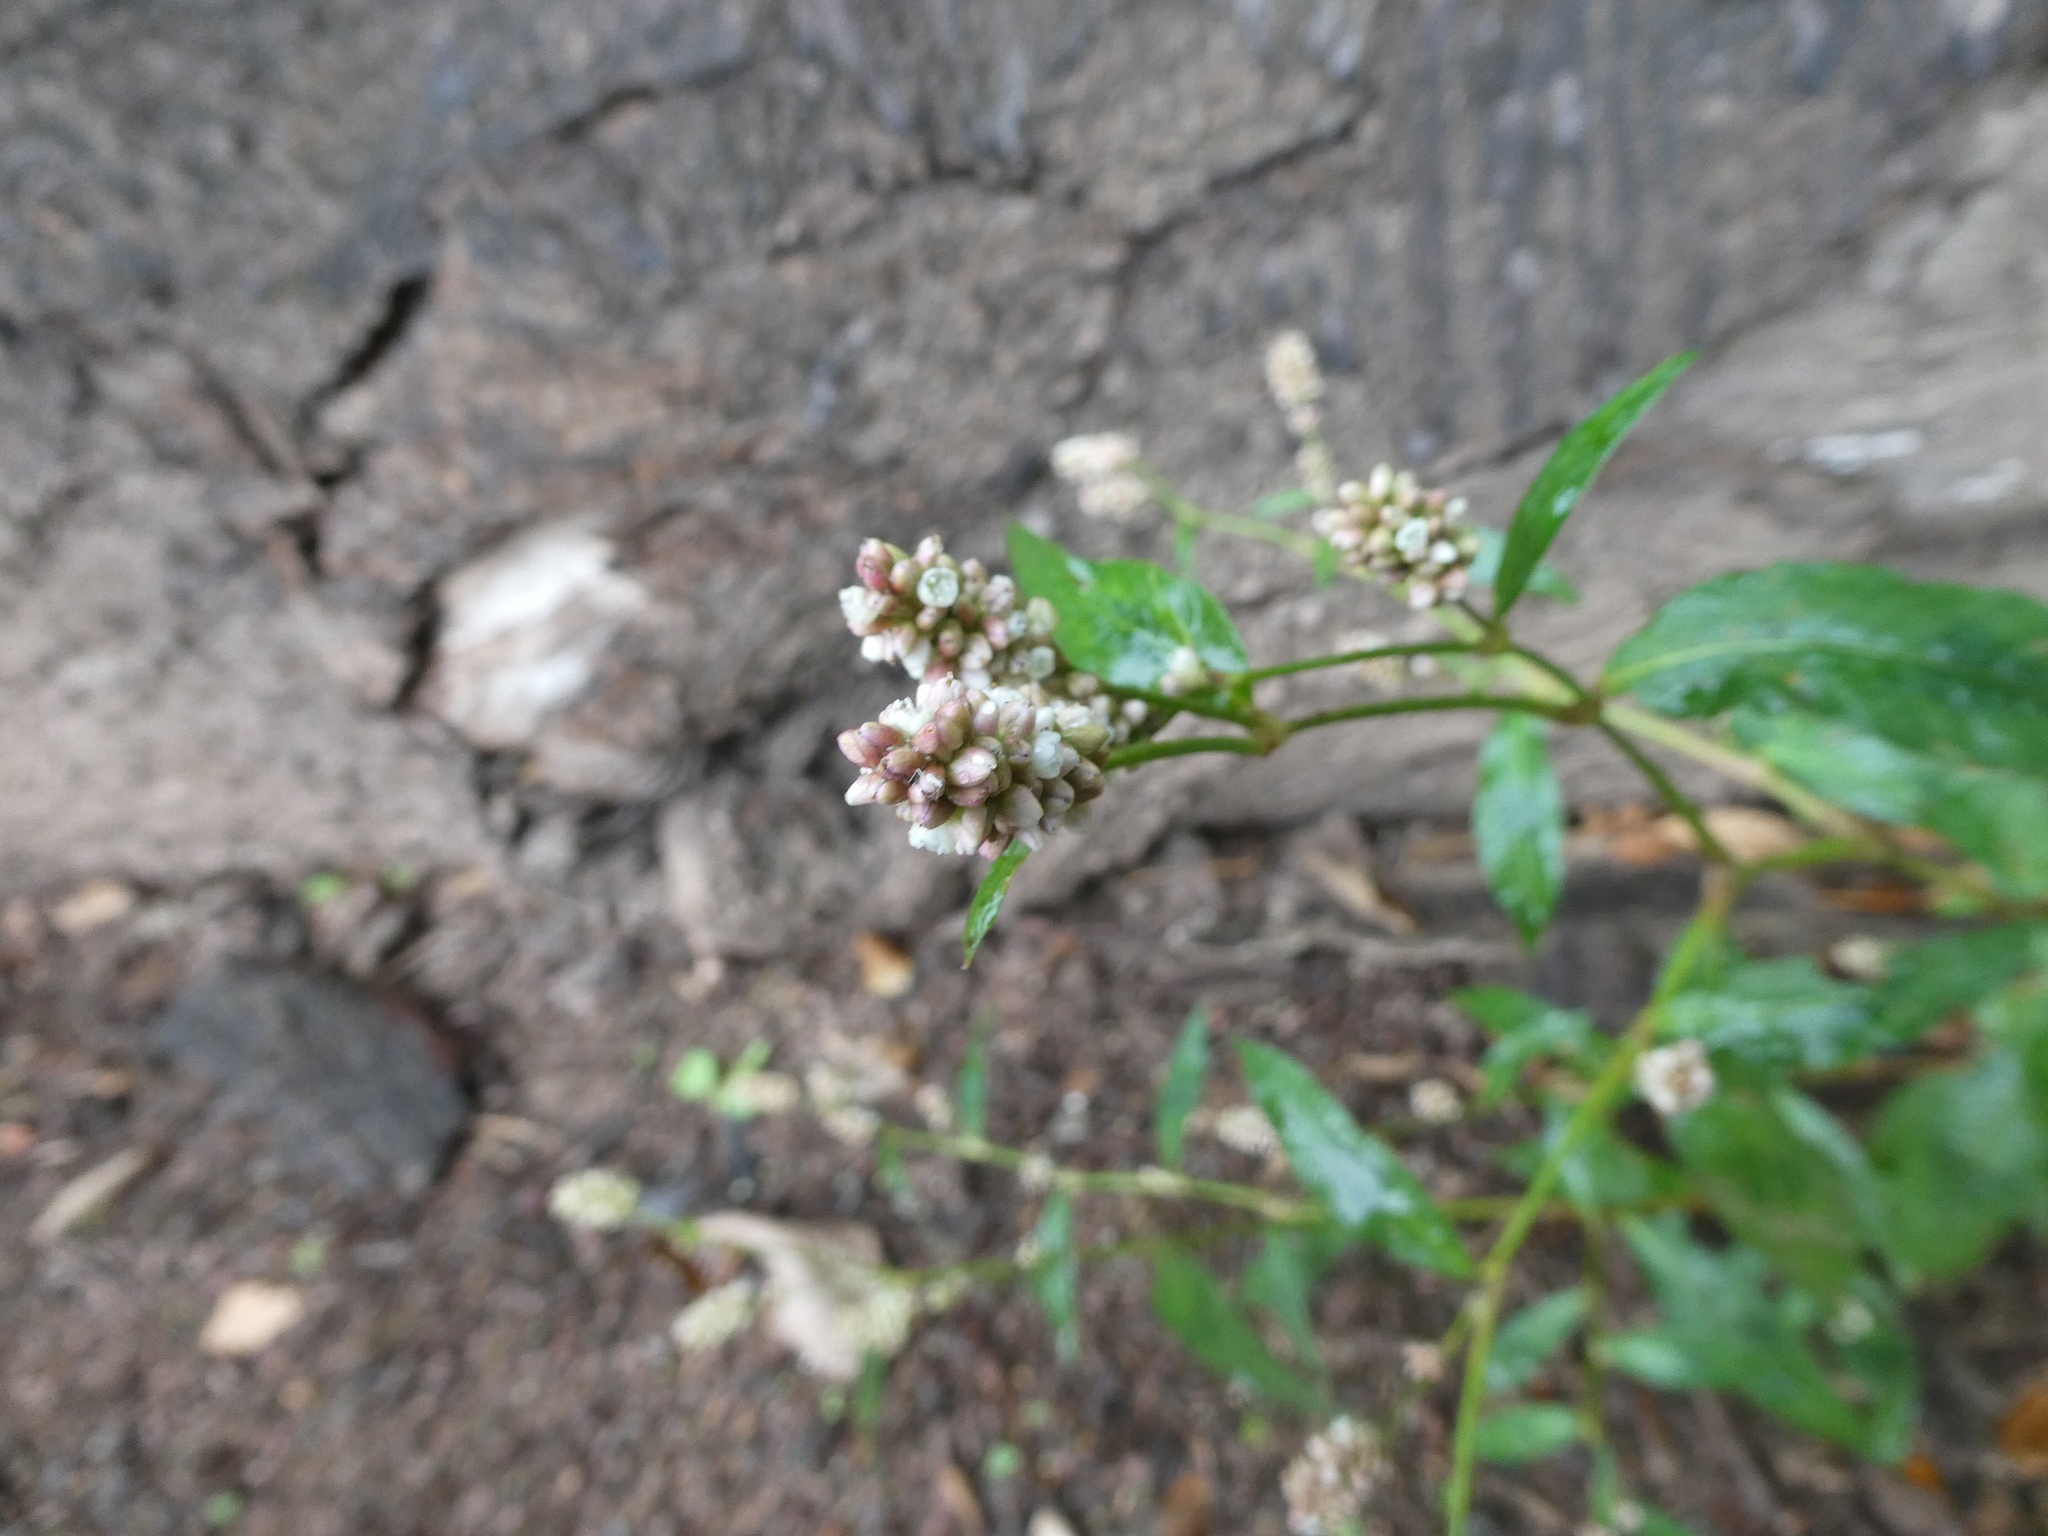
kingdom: Plantae
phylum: Tracheophyta
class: Magnoliopsida
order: Caryophyllales
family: Polygonaceae
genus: Persicaria
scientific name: Persicaria maculosa
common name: Redshank
